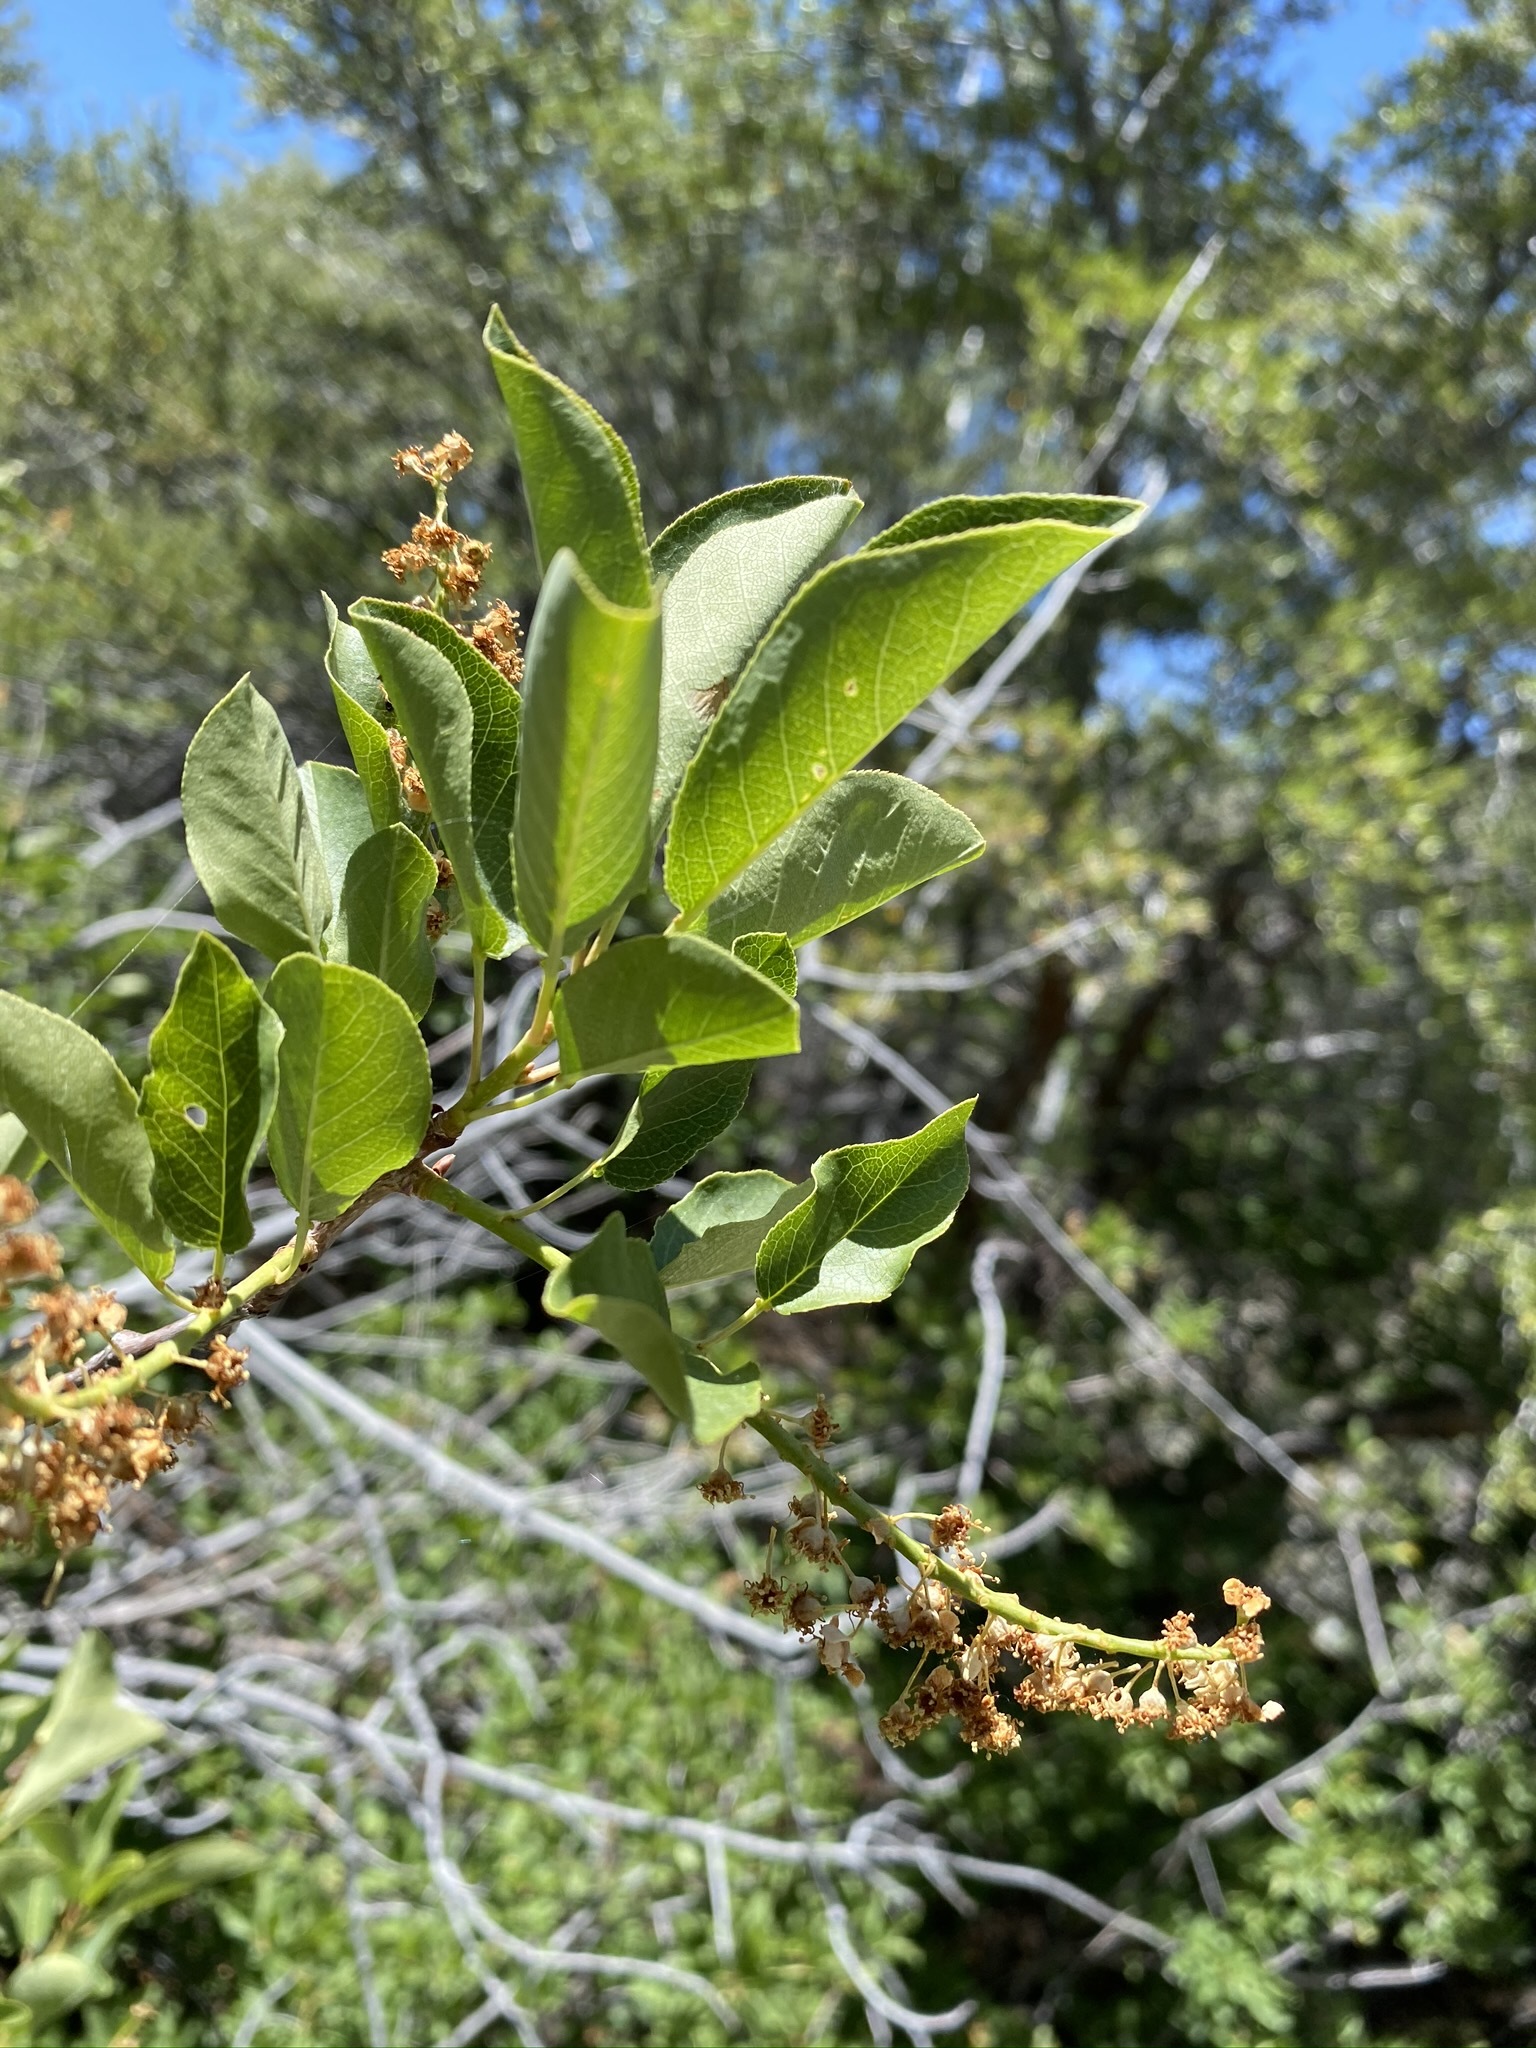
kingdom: Plantae
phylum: Tracheophyta
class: Magnoliopsida
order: Rosales
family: Rosaceae
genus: Prunus
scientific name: Prunus virginiana
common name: Chokecherry
